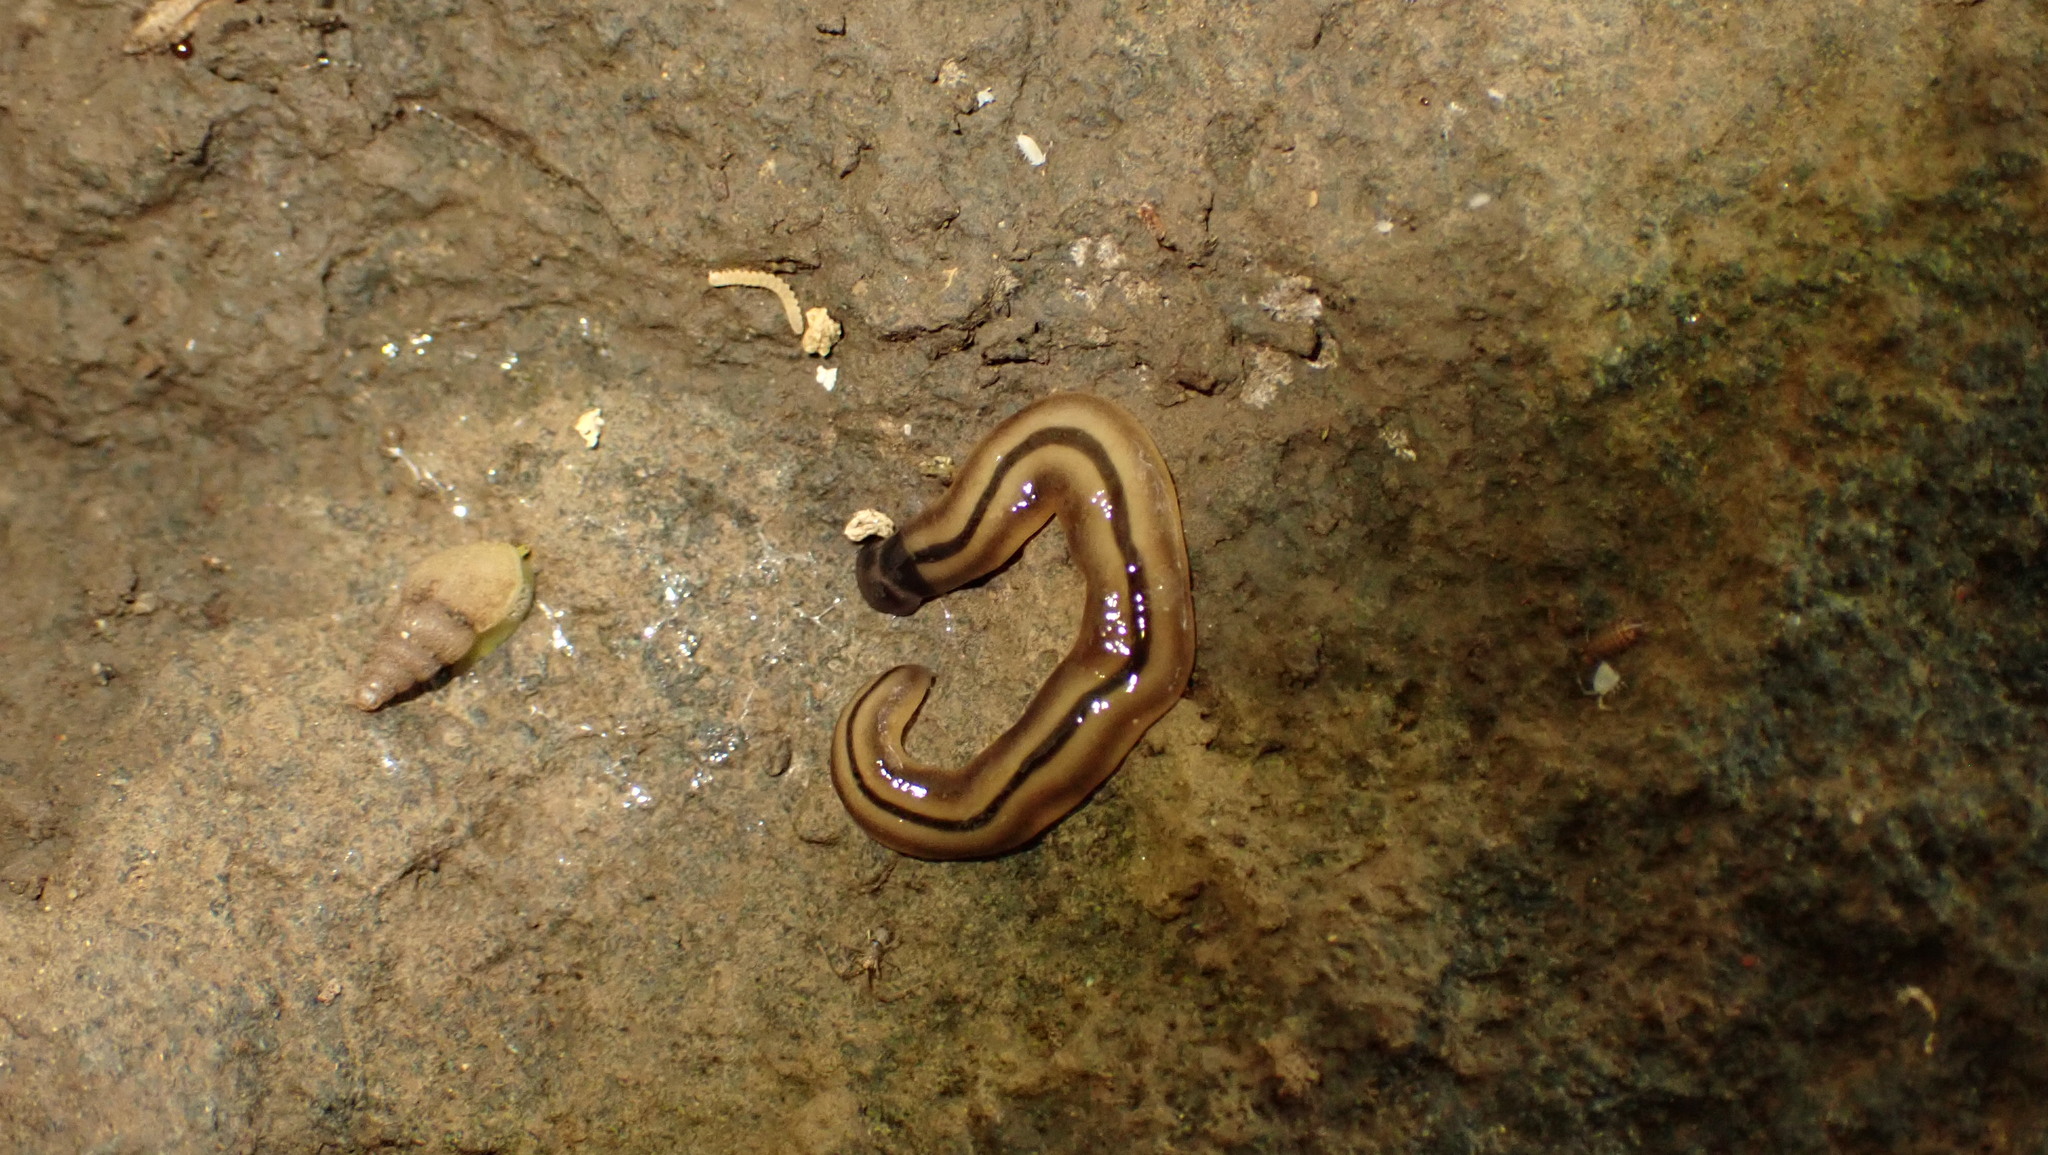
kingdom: Animalia
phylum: Platyhelminthes
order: Tricladida
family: Geoplanidae
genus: Bipalium
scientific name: Bipalium vagum
